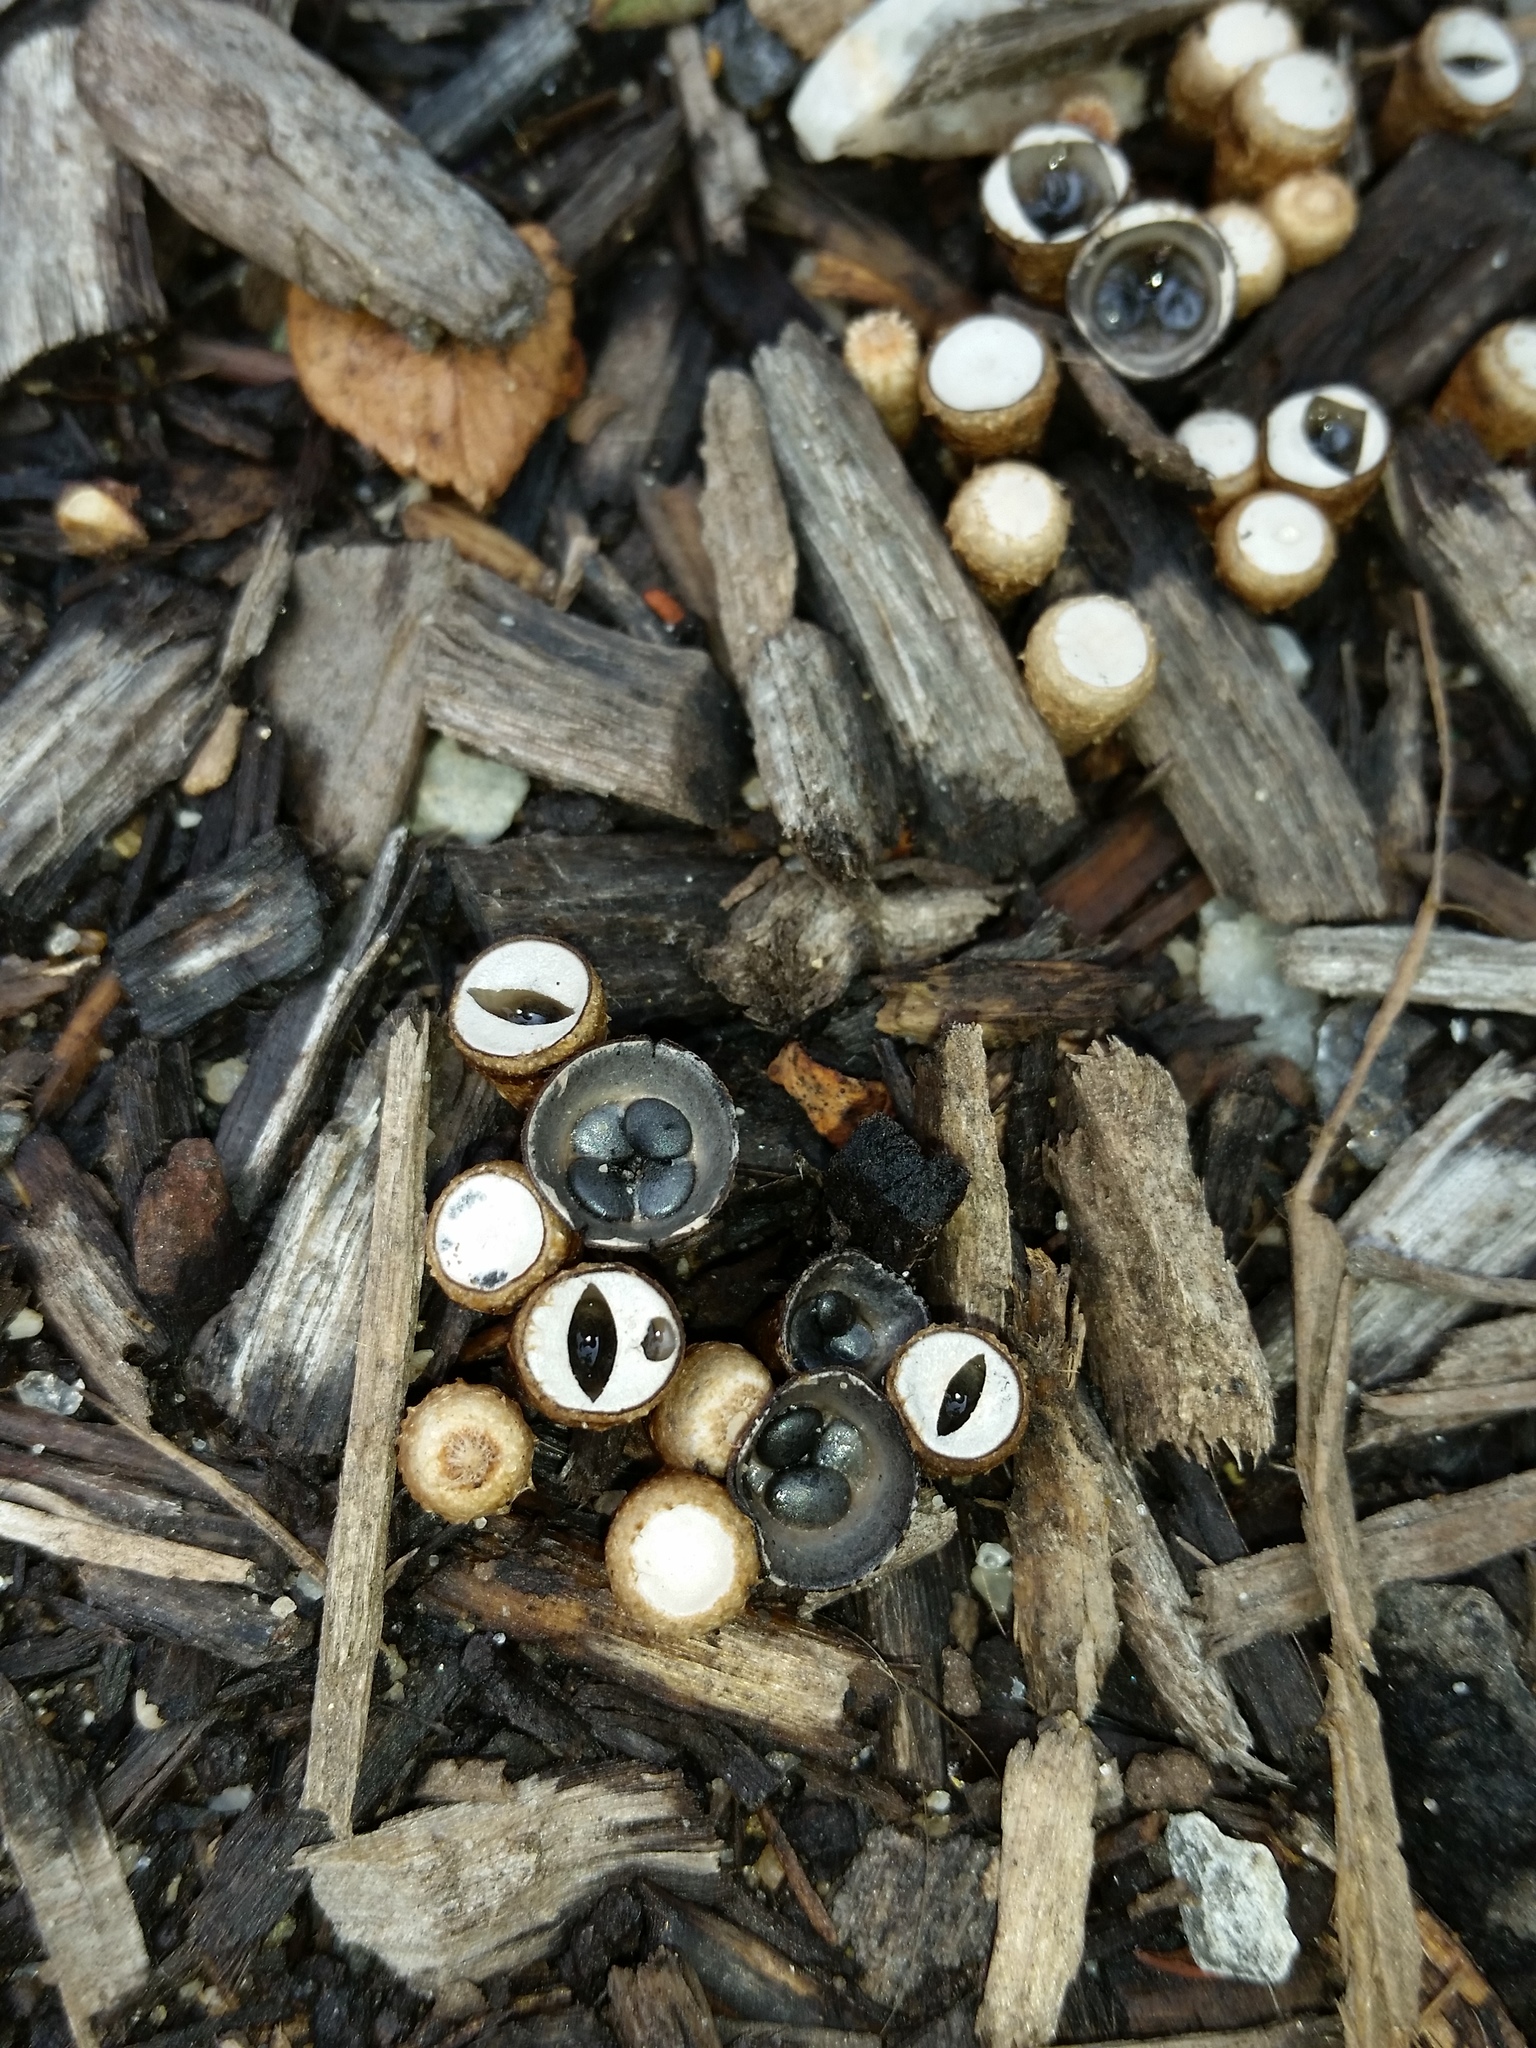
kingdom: Fungi
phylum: Basidiomycota
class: Agaricomycetes
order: Agaricales
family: Agaricaceae
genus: Cyathus
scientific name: Cyathus stercoreus
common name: Dung bird's nest
